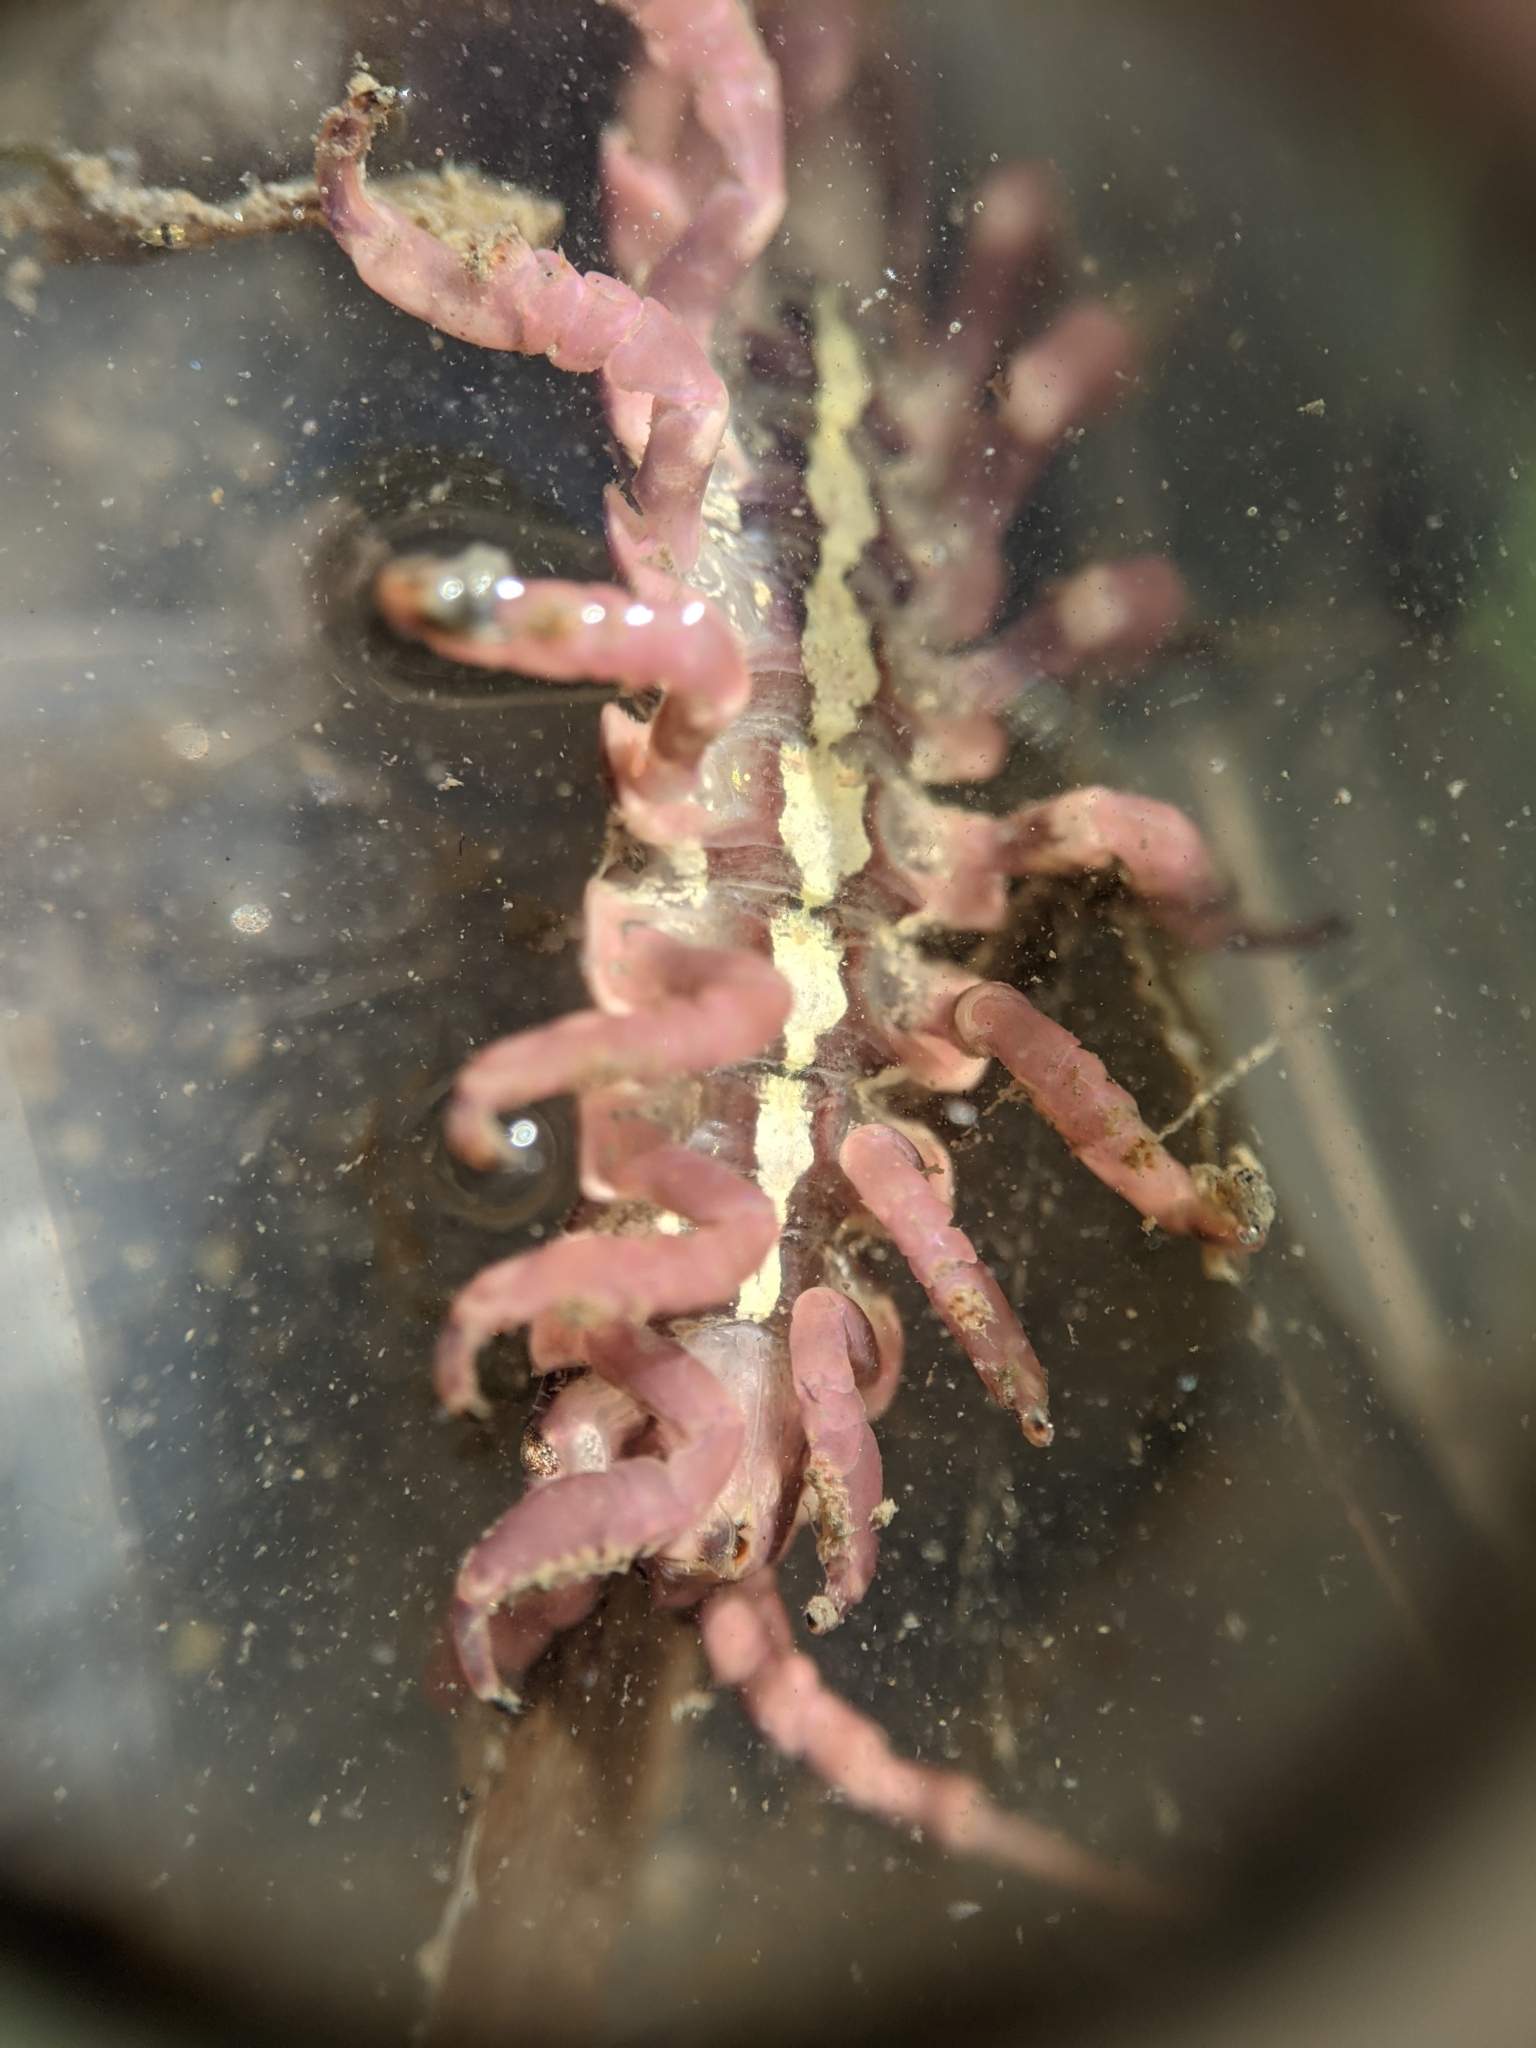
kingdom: Animalia
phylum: Arthropoda
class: Malacostraca
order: Isopoda
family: Idoteidae
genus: Pentidotea
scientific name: Pentidotea schmitti
